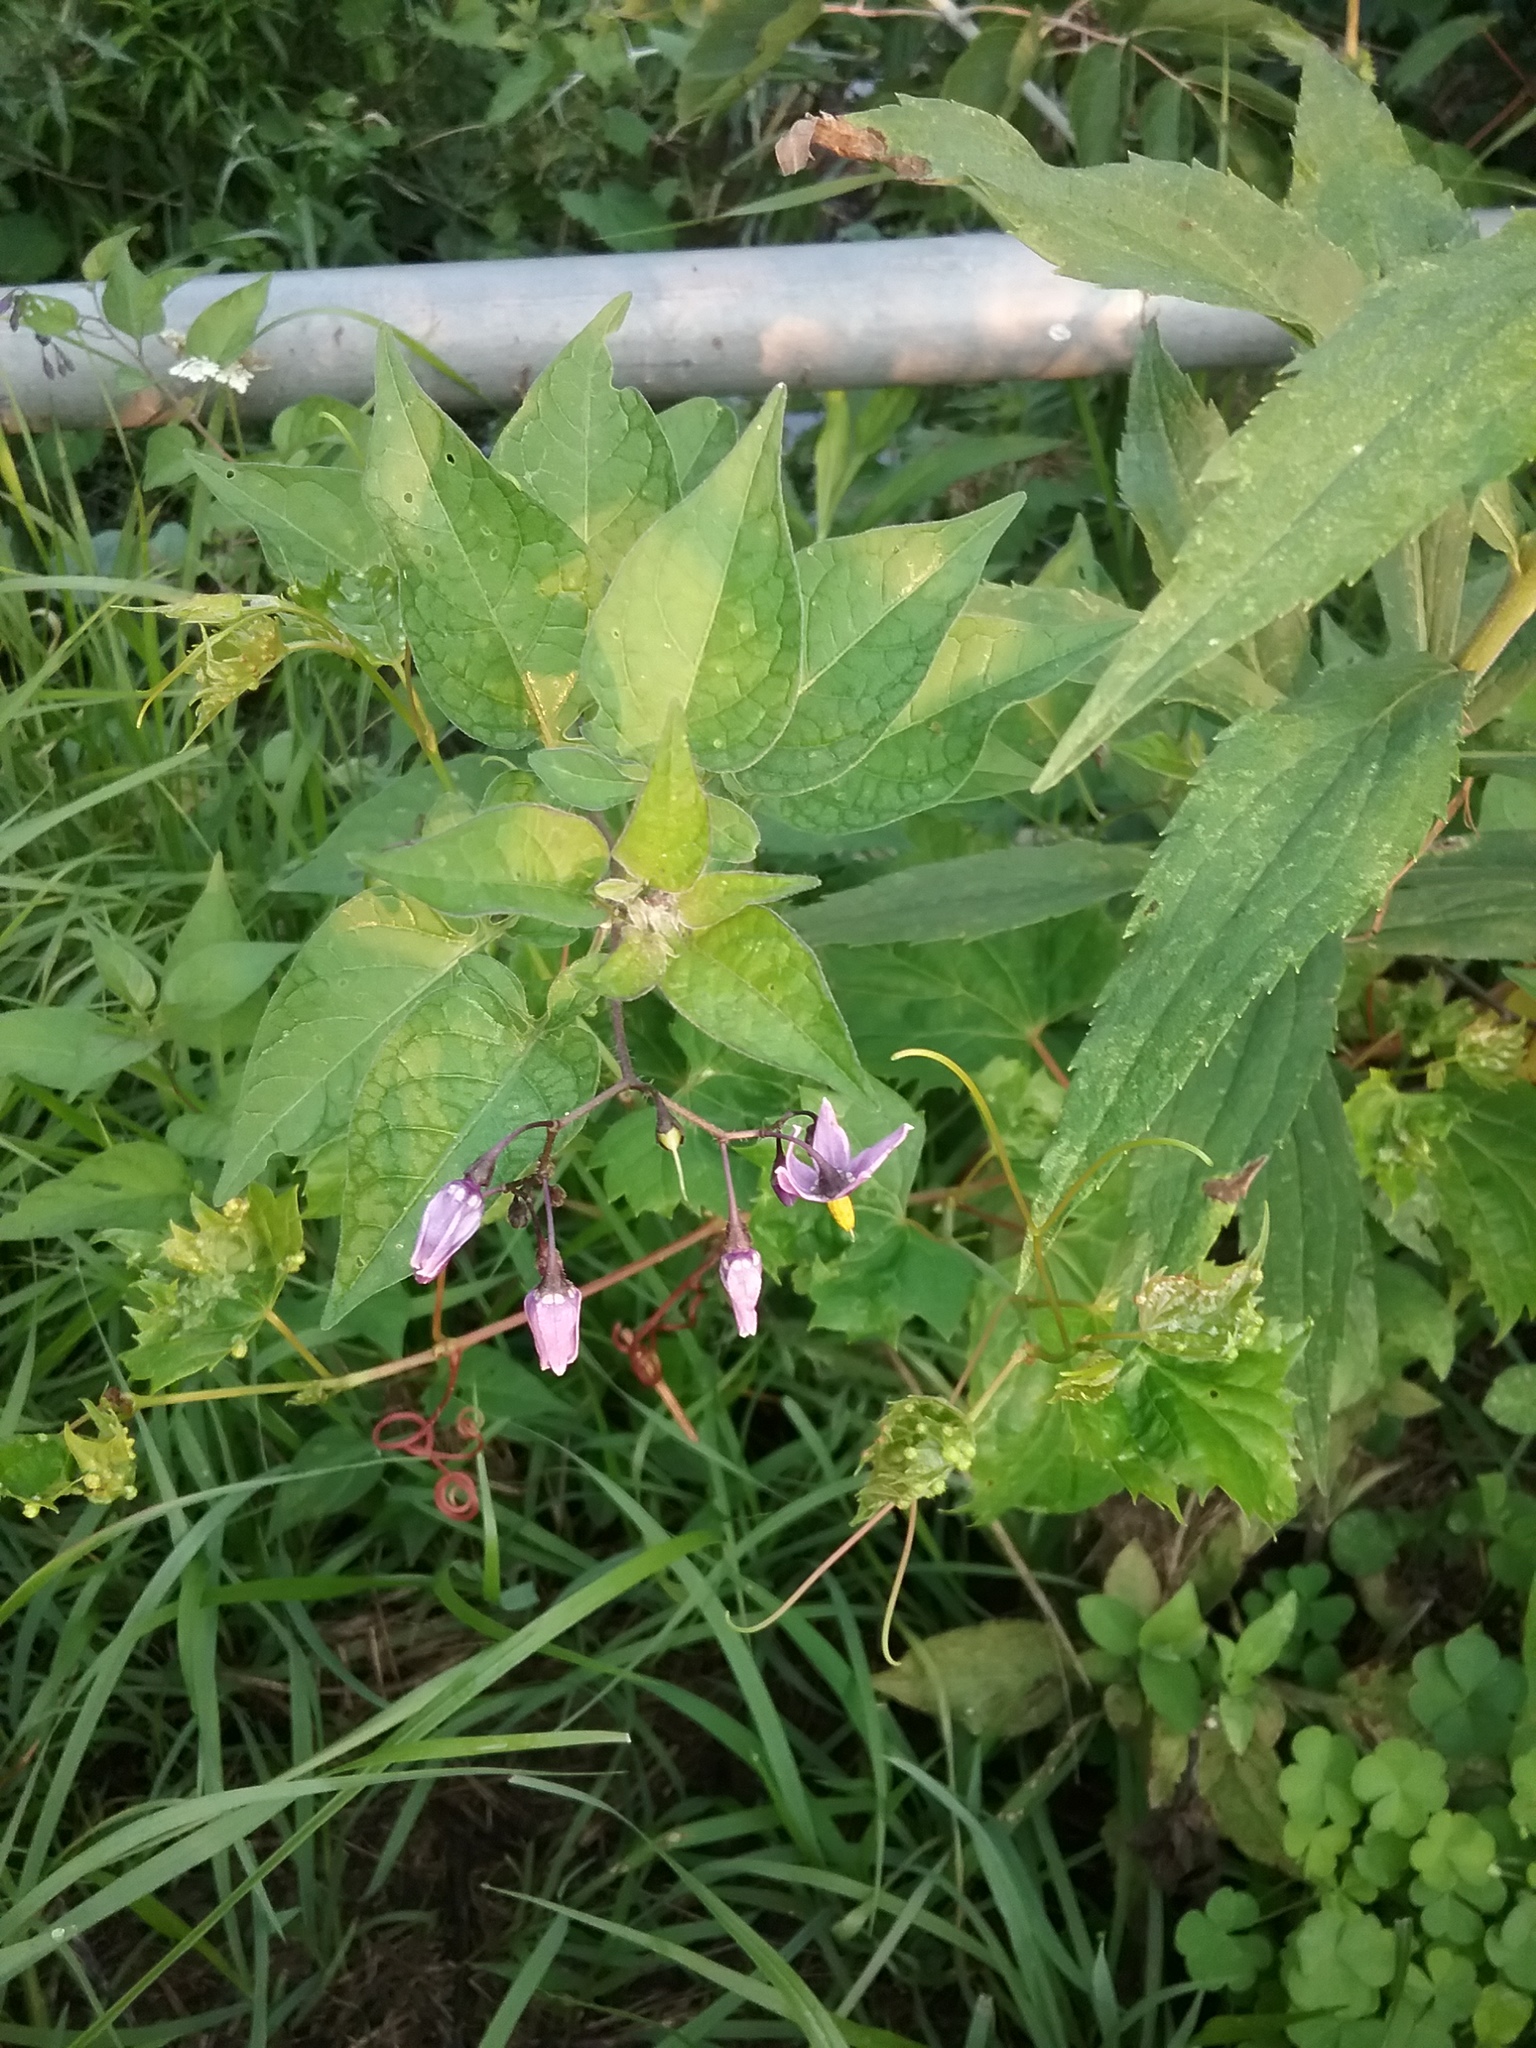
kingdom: Plantae
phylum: Tracheophyta
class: Magnoliopsida
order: Solanales
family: Solanaceae
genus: Solanum
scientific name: Solanum dulcamara
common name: Climbing nightshade
